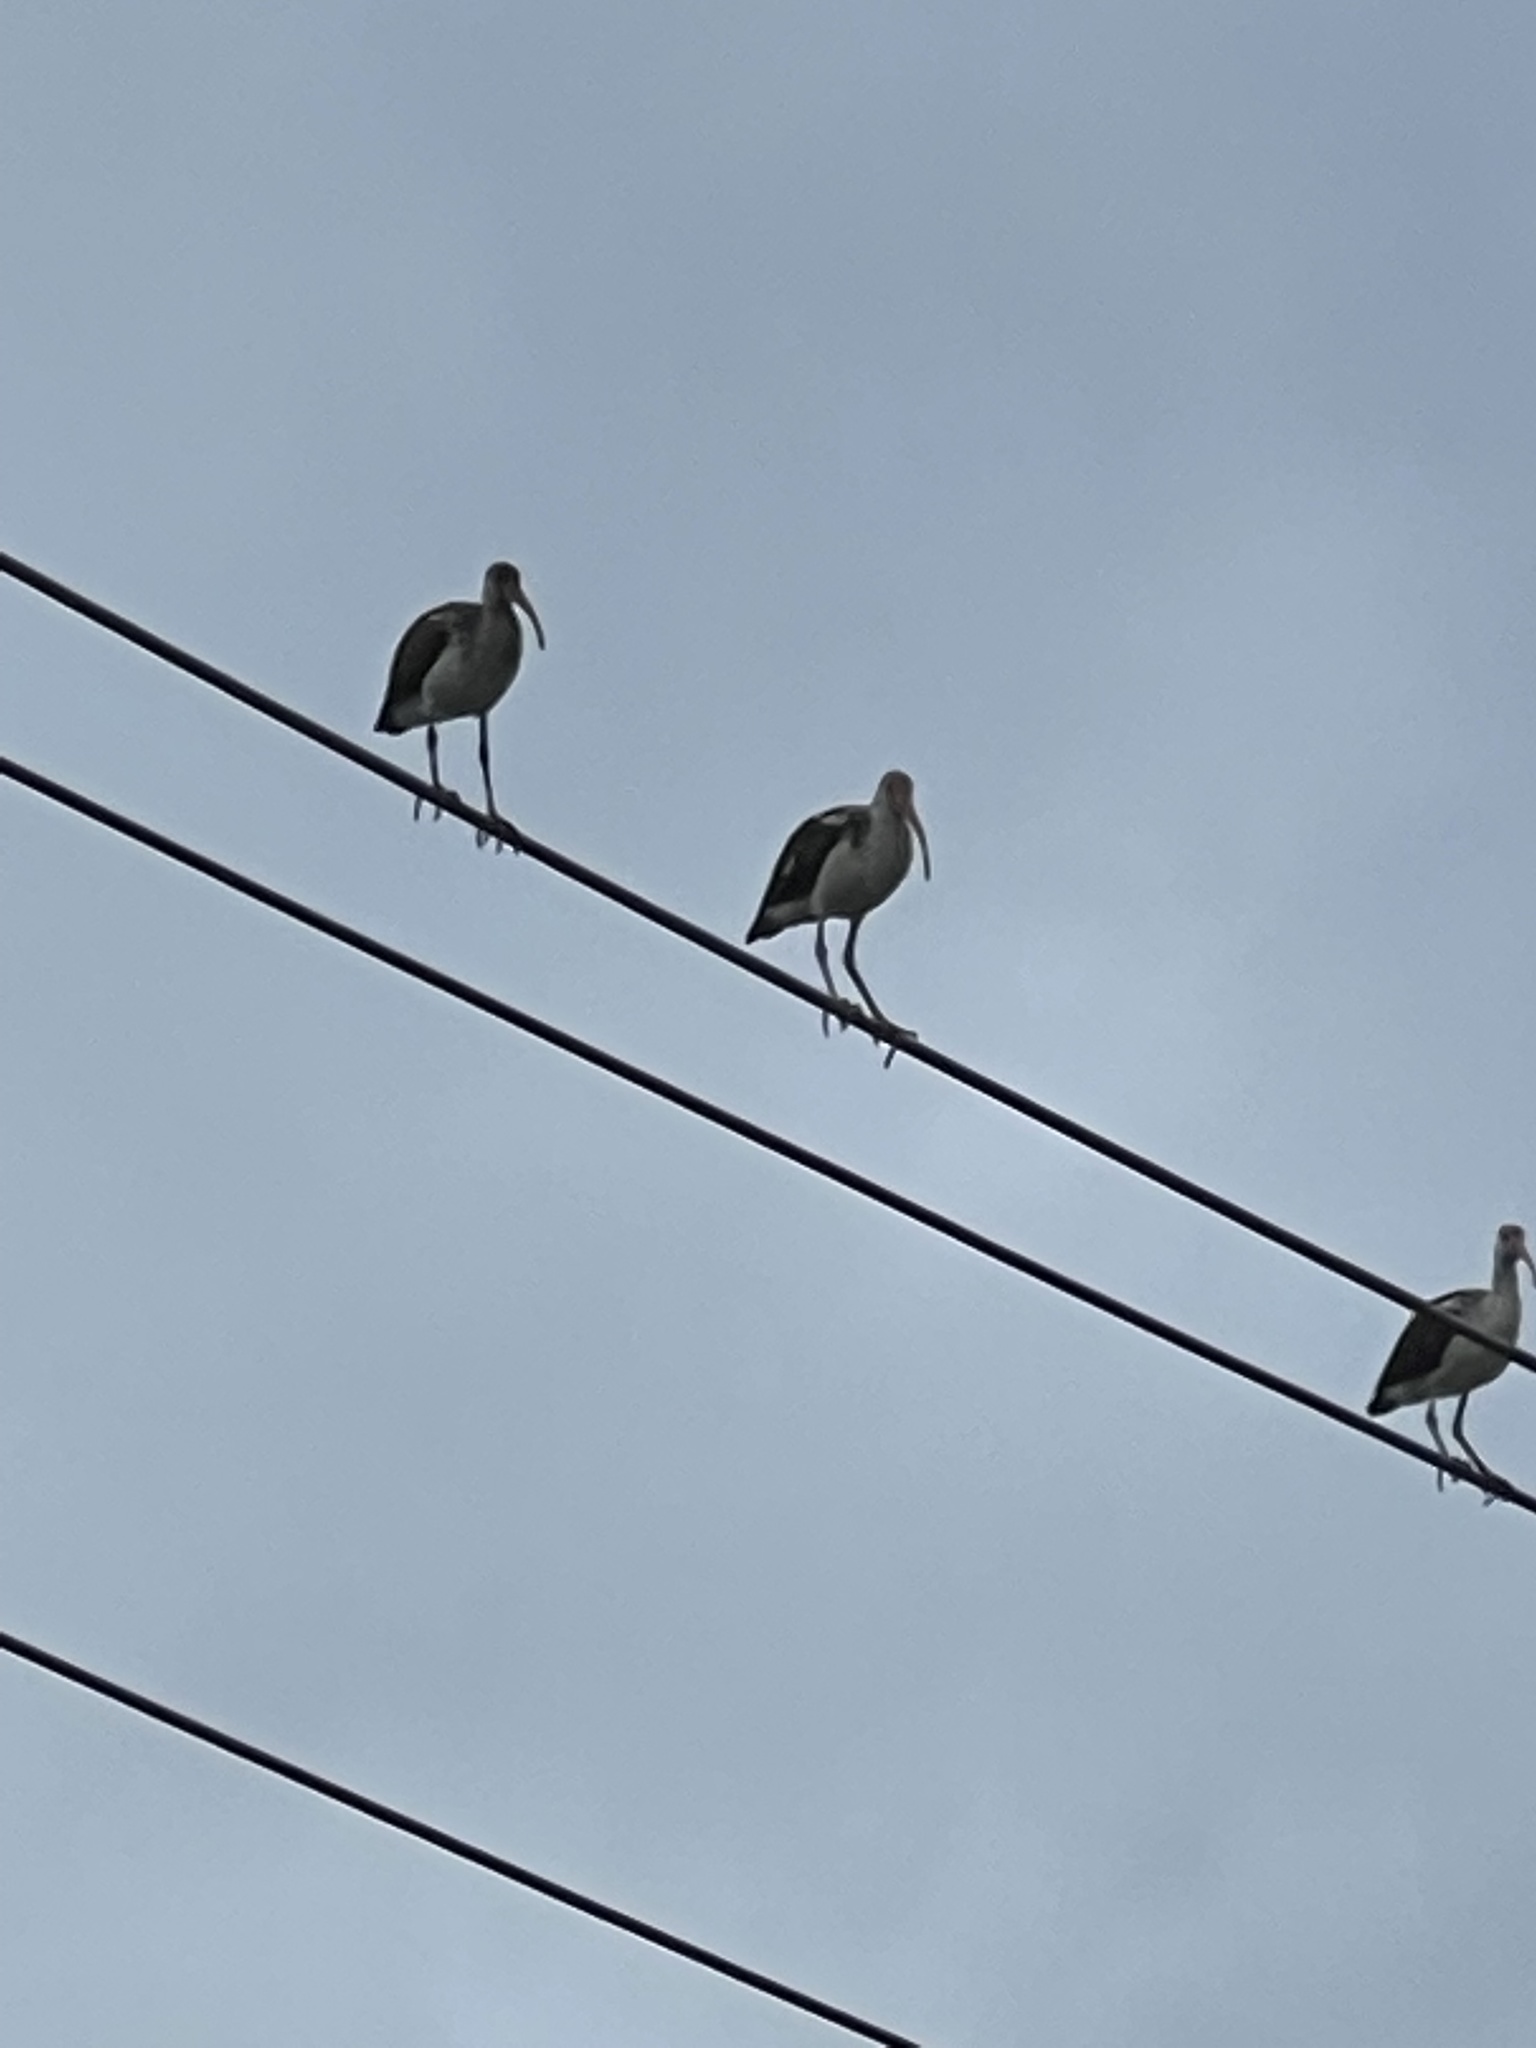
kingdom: Animalia
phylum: Chordata
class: Aves
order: Pelecaniformes
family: Threskiornithidae
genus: Eudocimus
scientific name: Eudocimus albus
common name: White ibis
